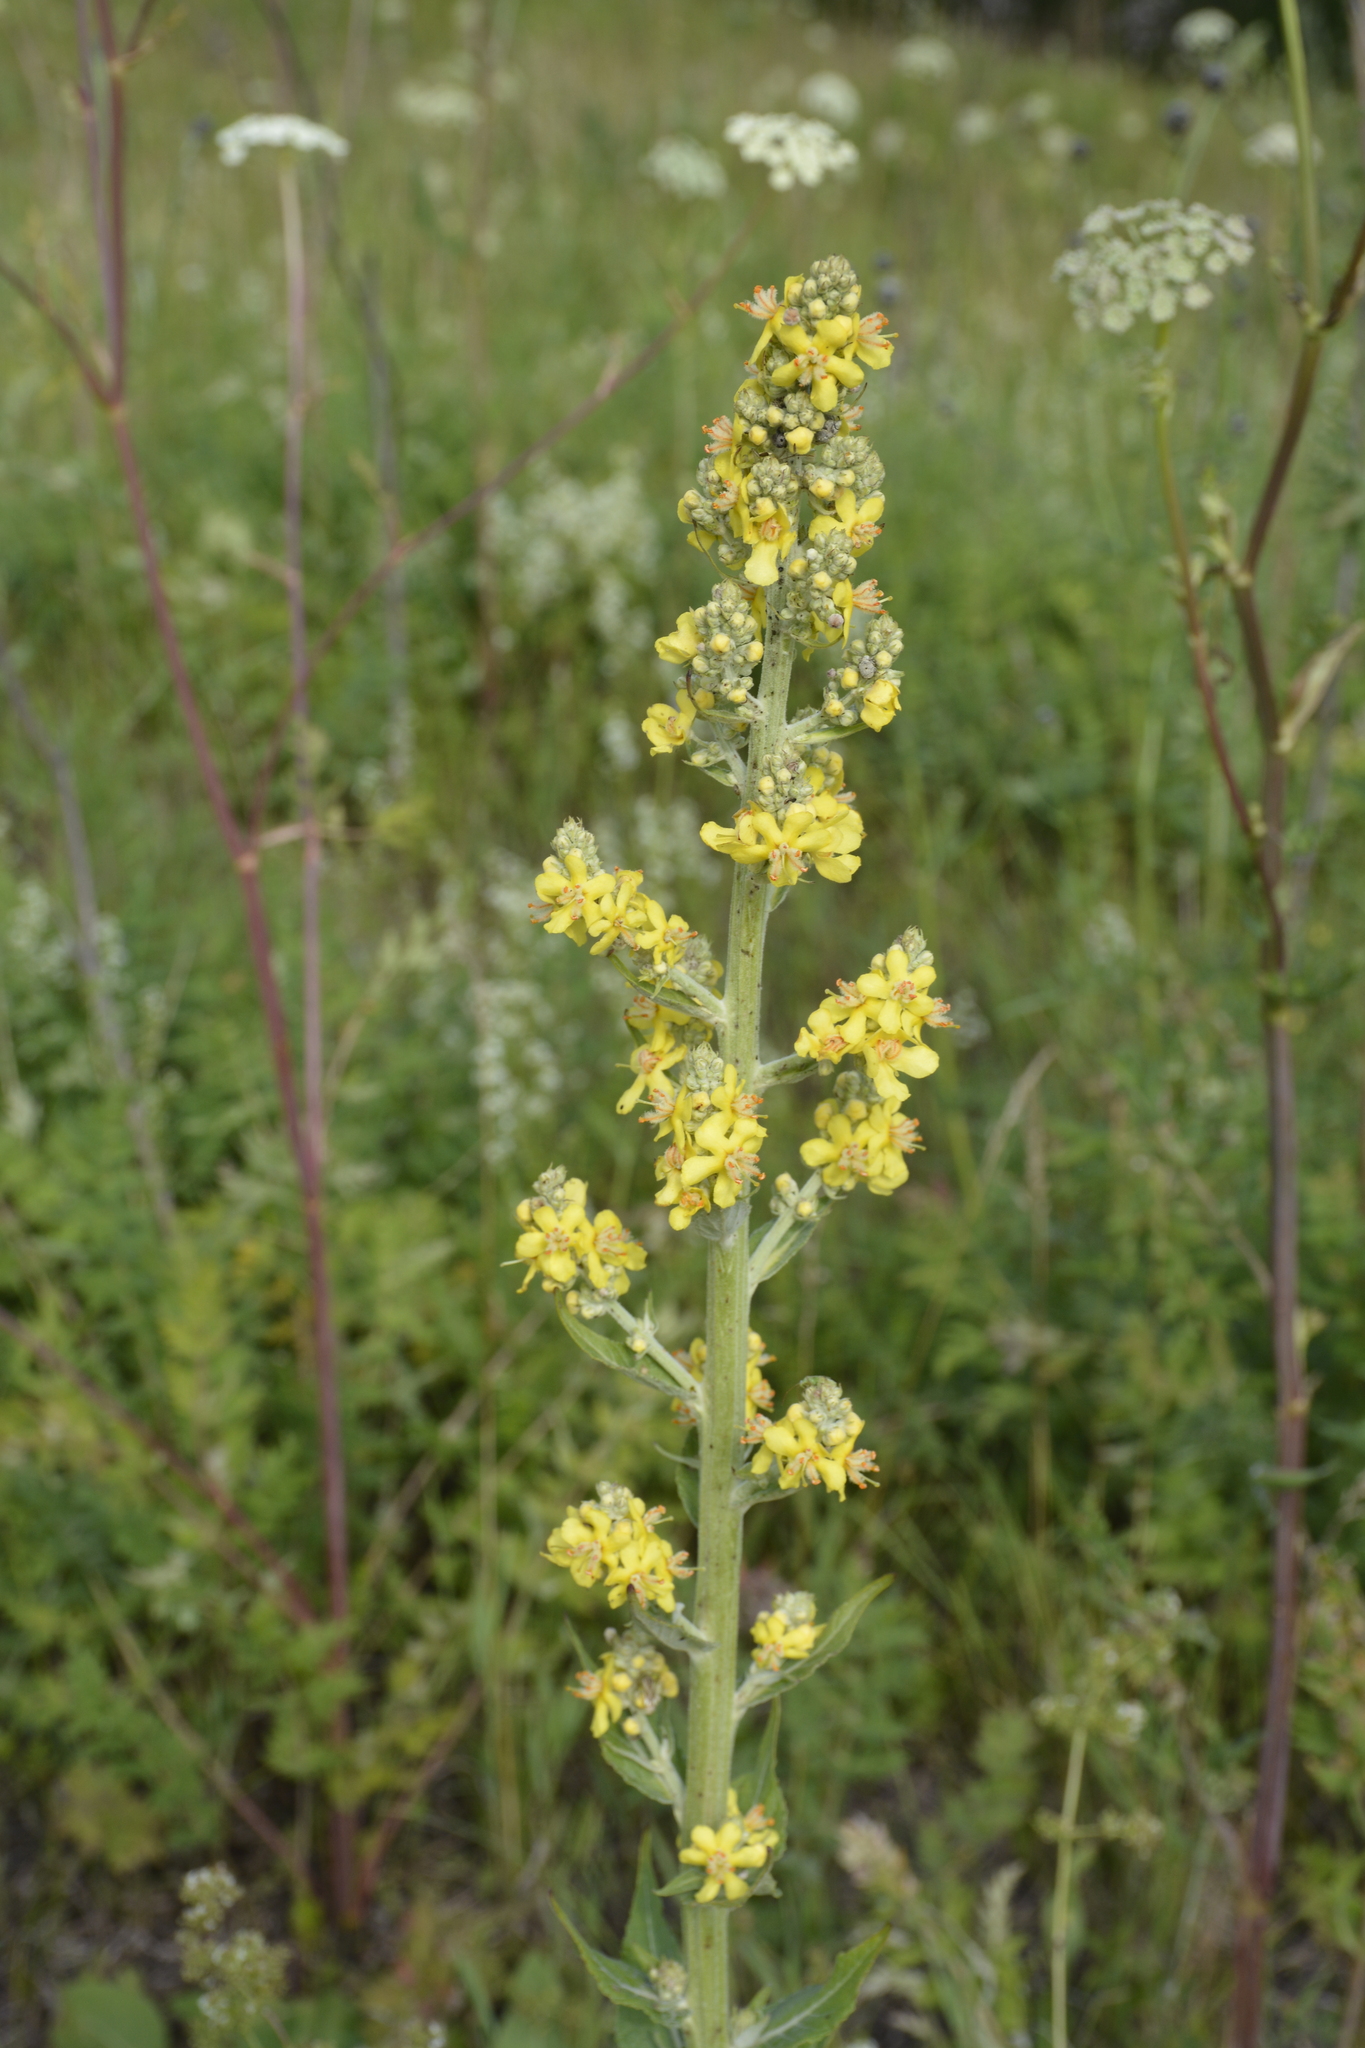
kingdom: Plantae
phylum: Tracheophyta
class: Magnoliopsida
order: Lamiales
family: Scrophulariaceae
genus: Verbascum
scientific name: Verbascum lychnitis
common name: White mullein
